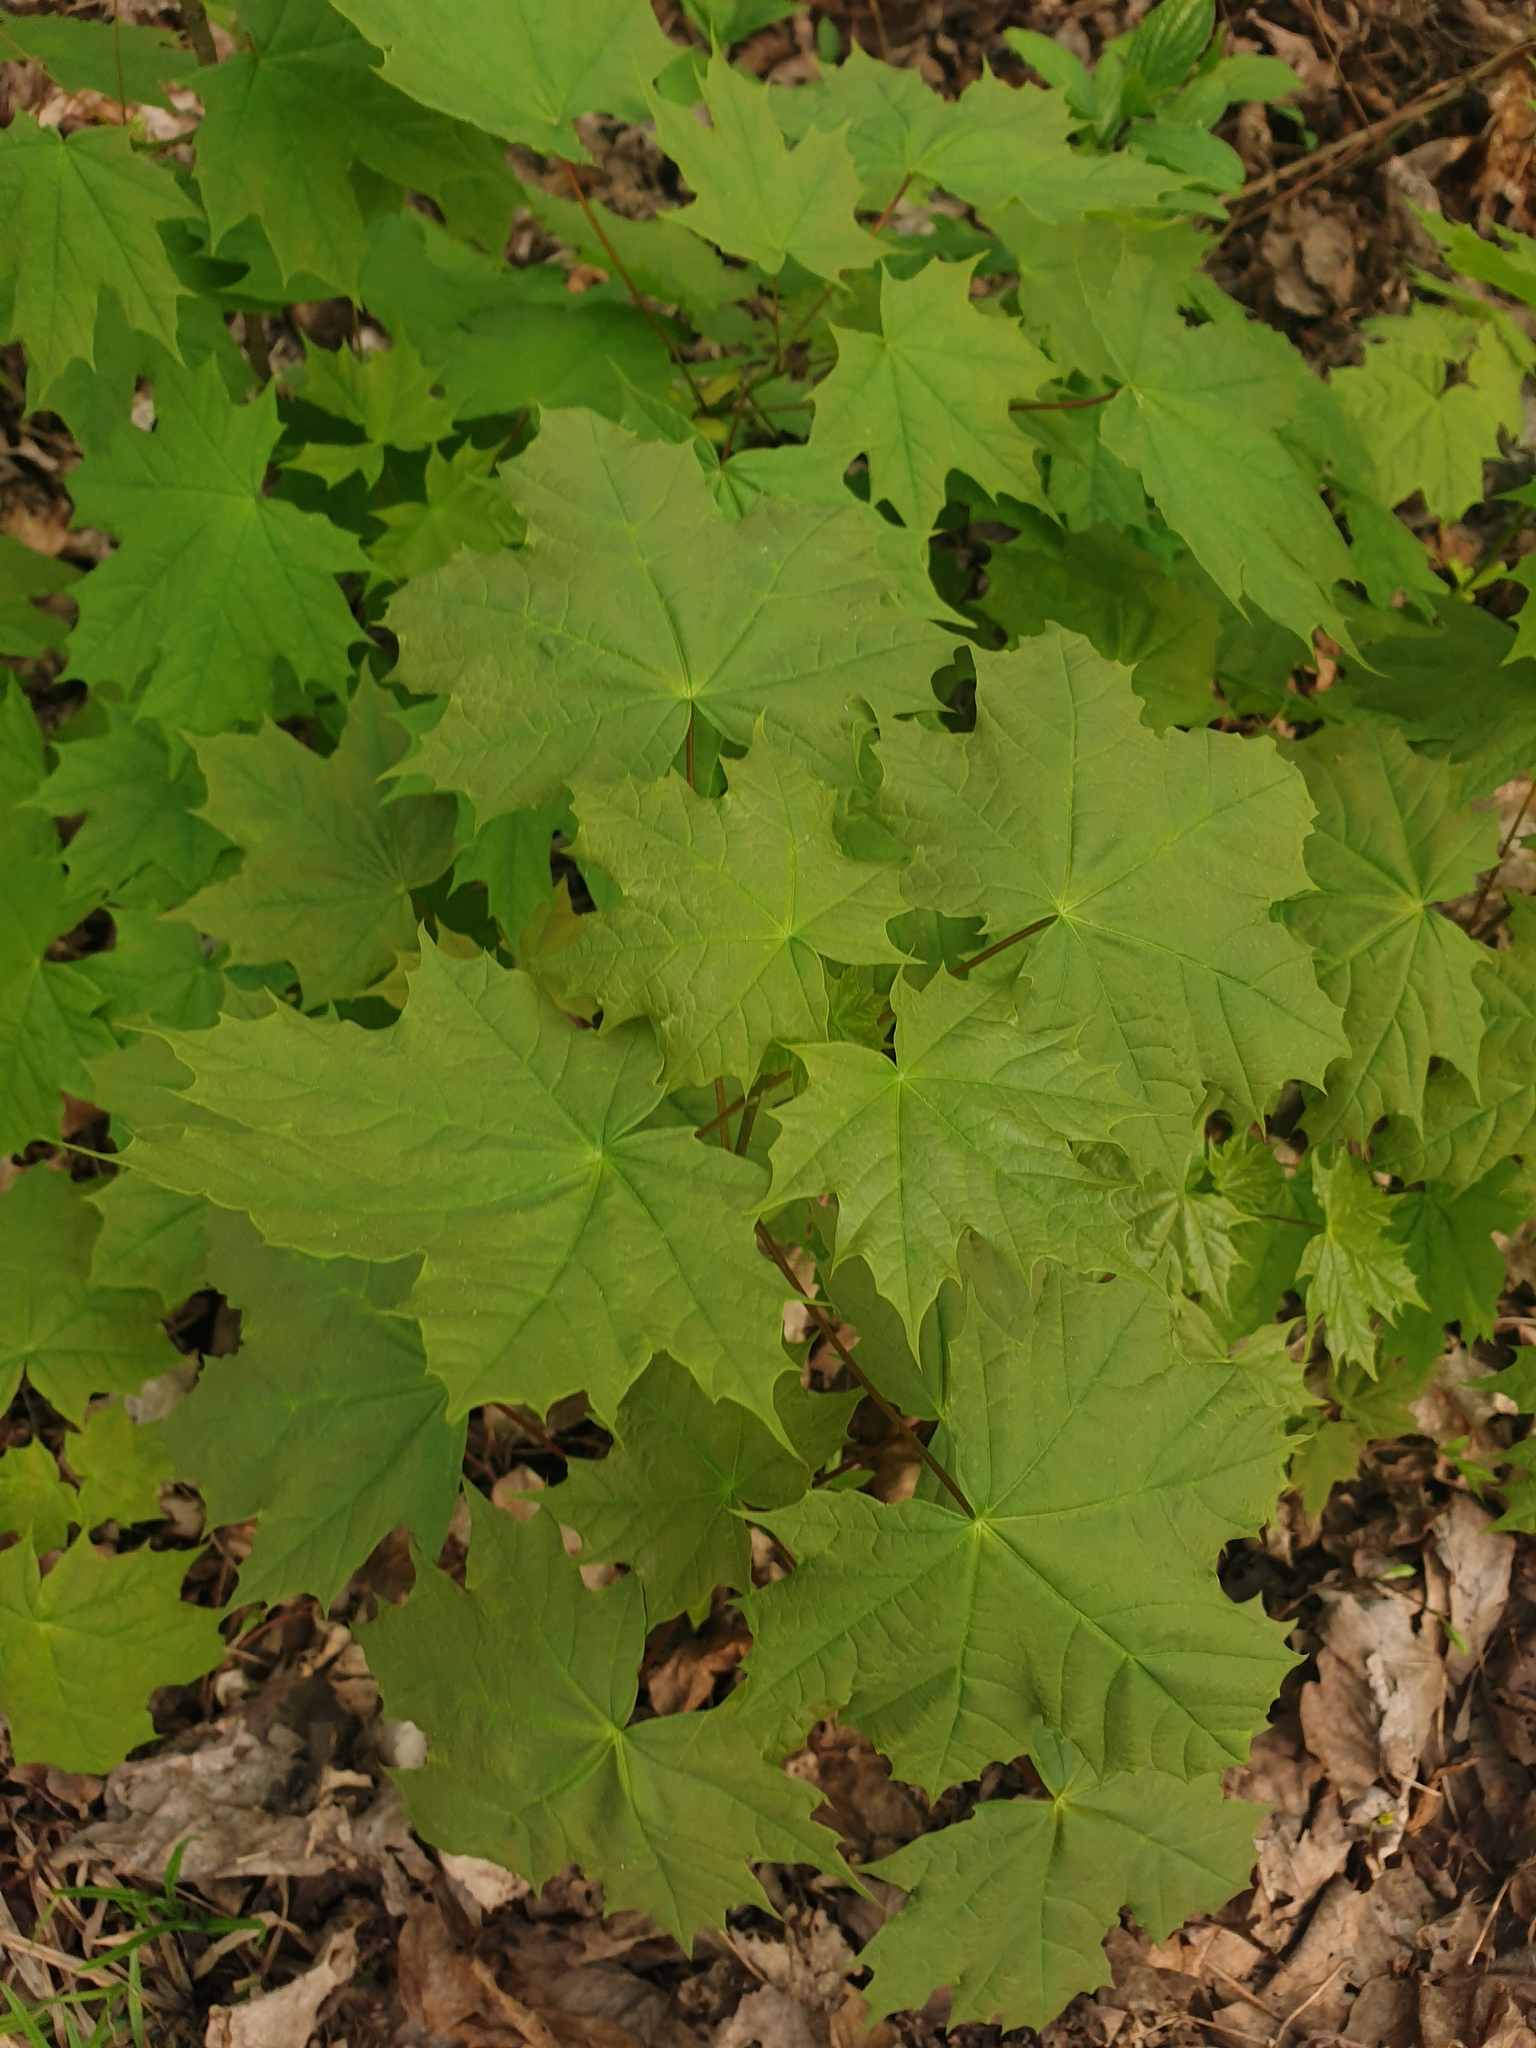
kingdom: Plantae
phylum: Tracheophyta
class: Magnoliopsida
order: Sapindales
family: Sapindaceae
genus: Acer
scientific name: Acer platanoides
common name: Norway maple
